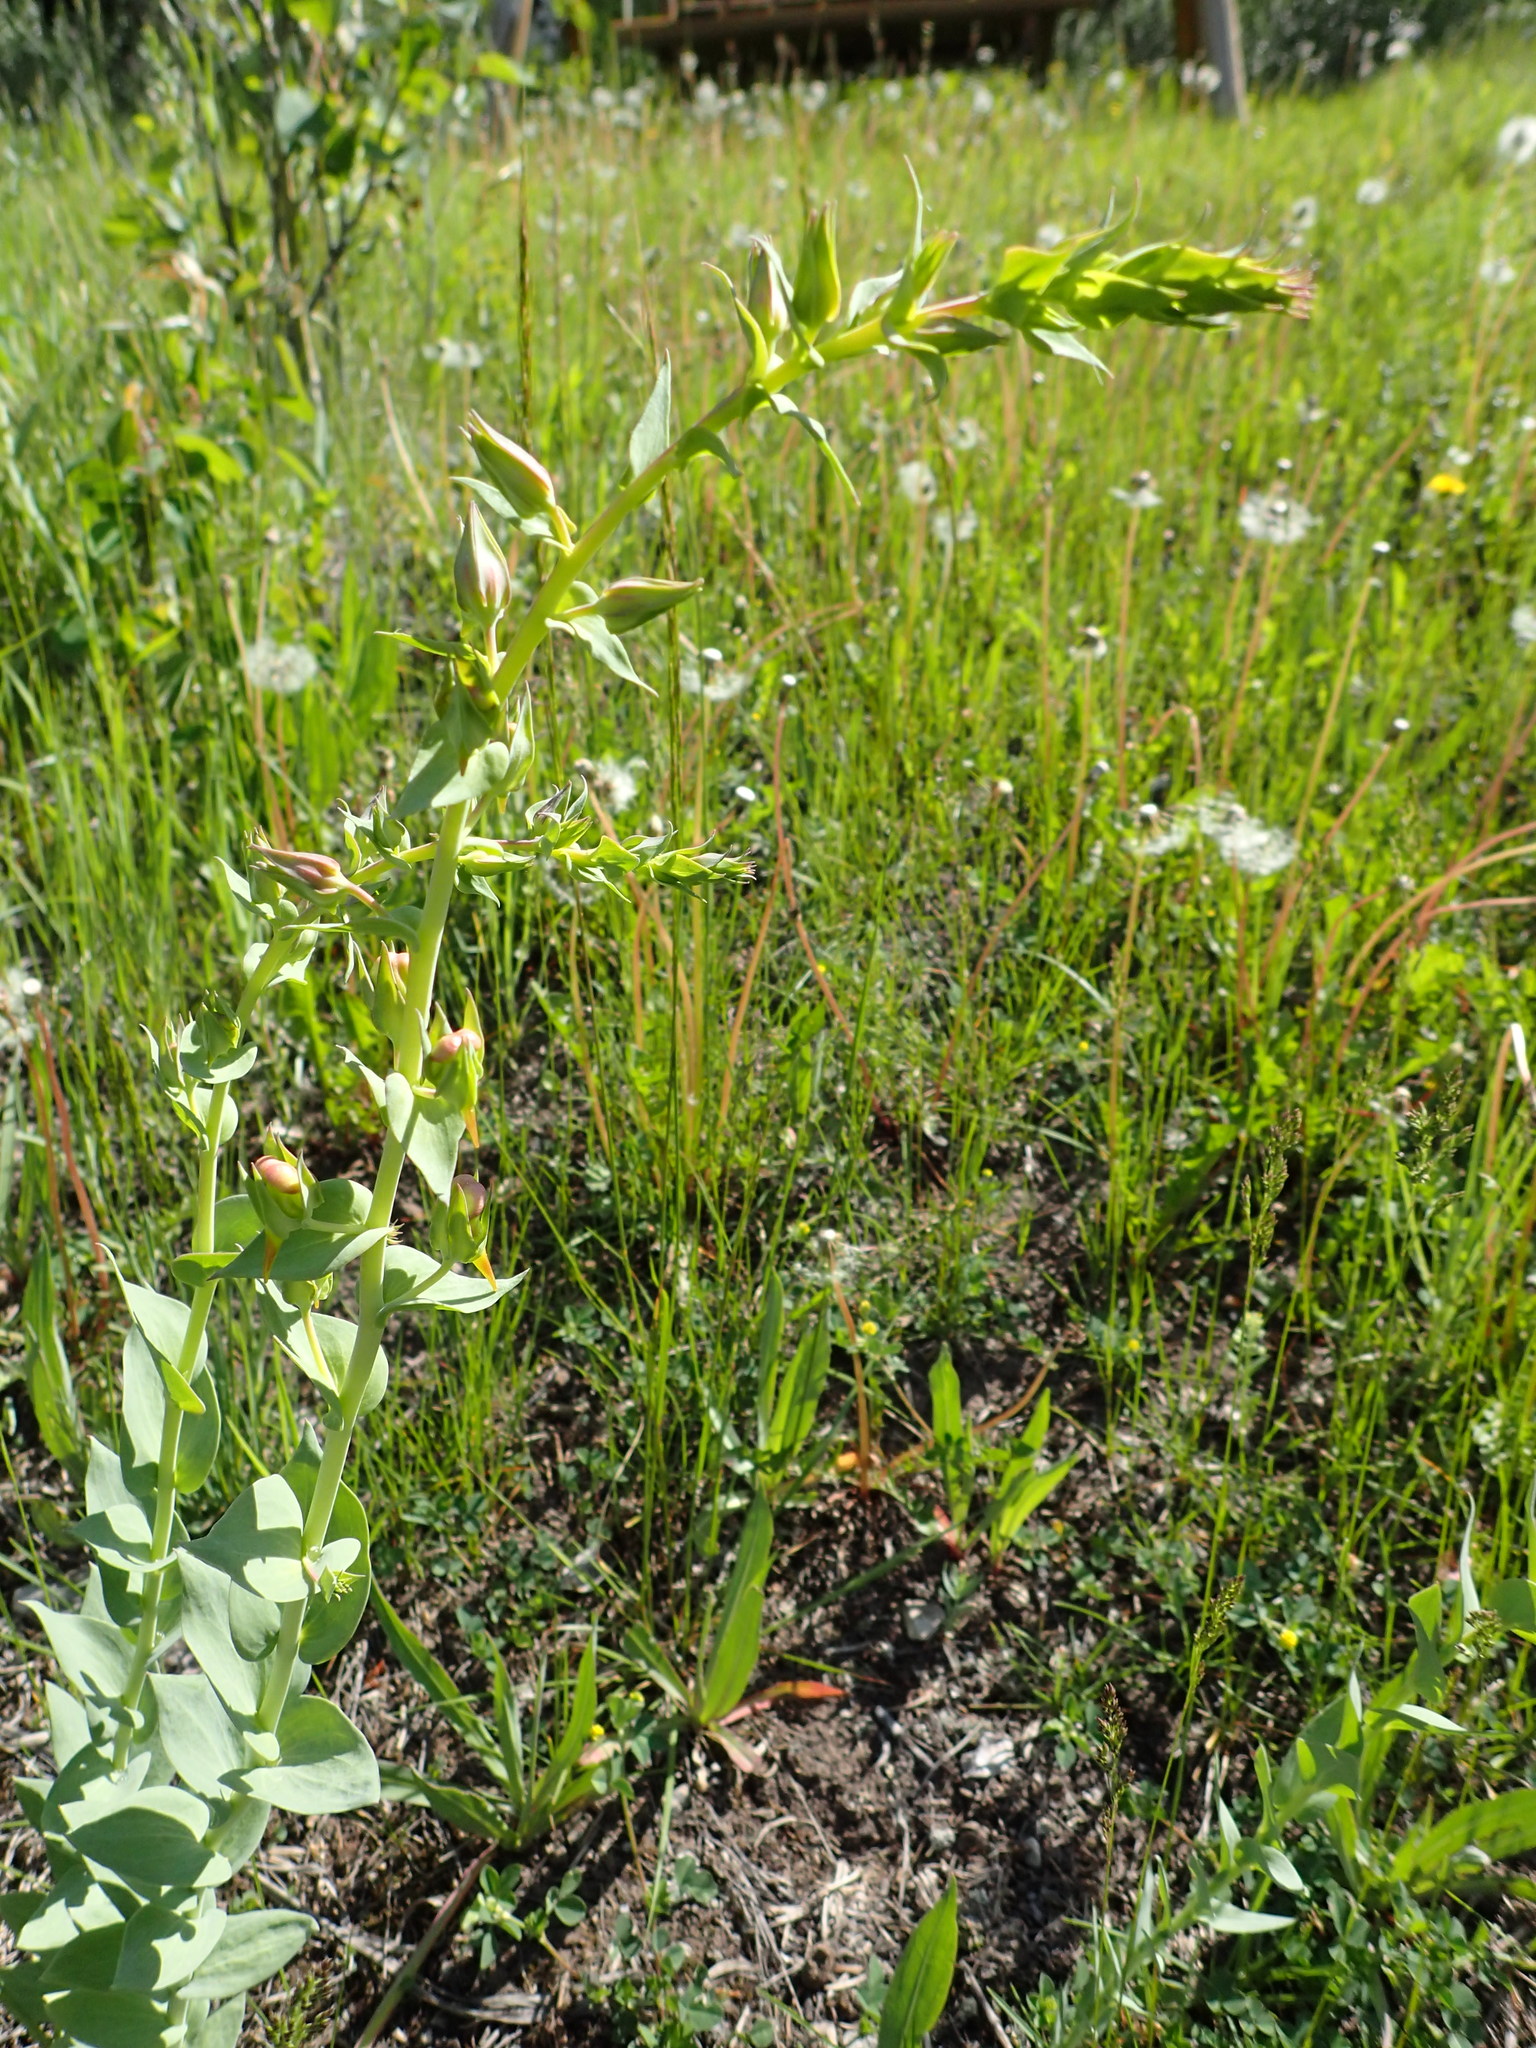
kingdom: Plantae
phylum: Tracheophyta
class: Magnoliopsida
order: Lamiales
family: Plantaginaceae
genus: Linaria
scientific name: Linaria dalmatica
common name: Dalmatian toadflax
